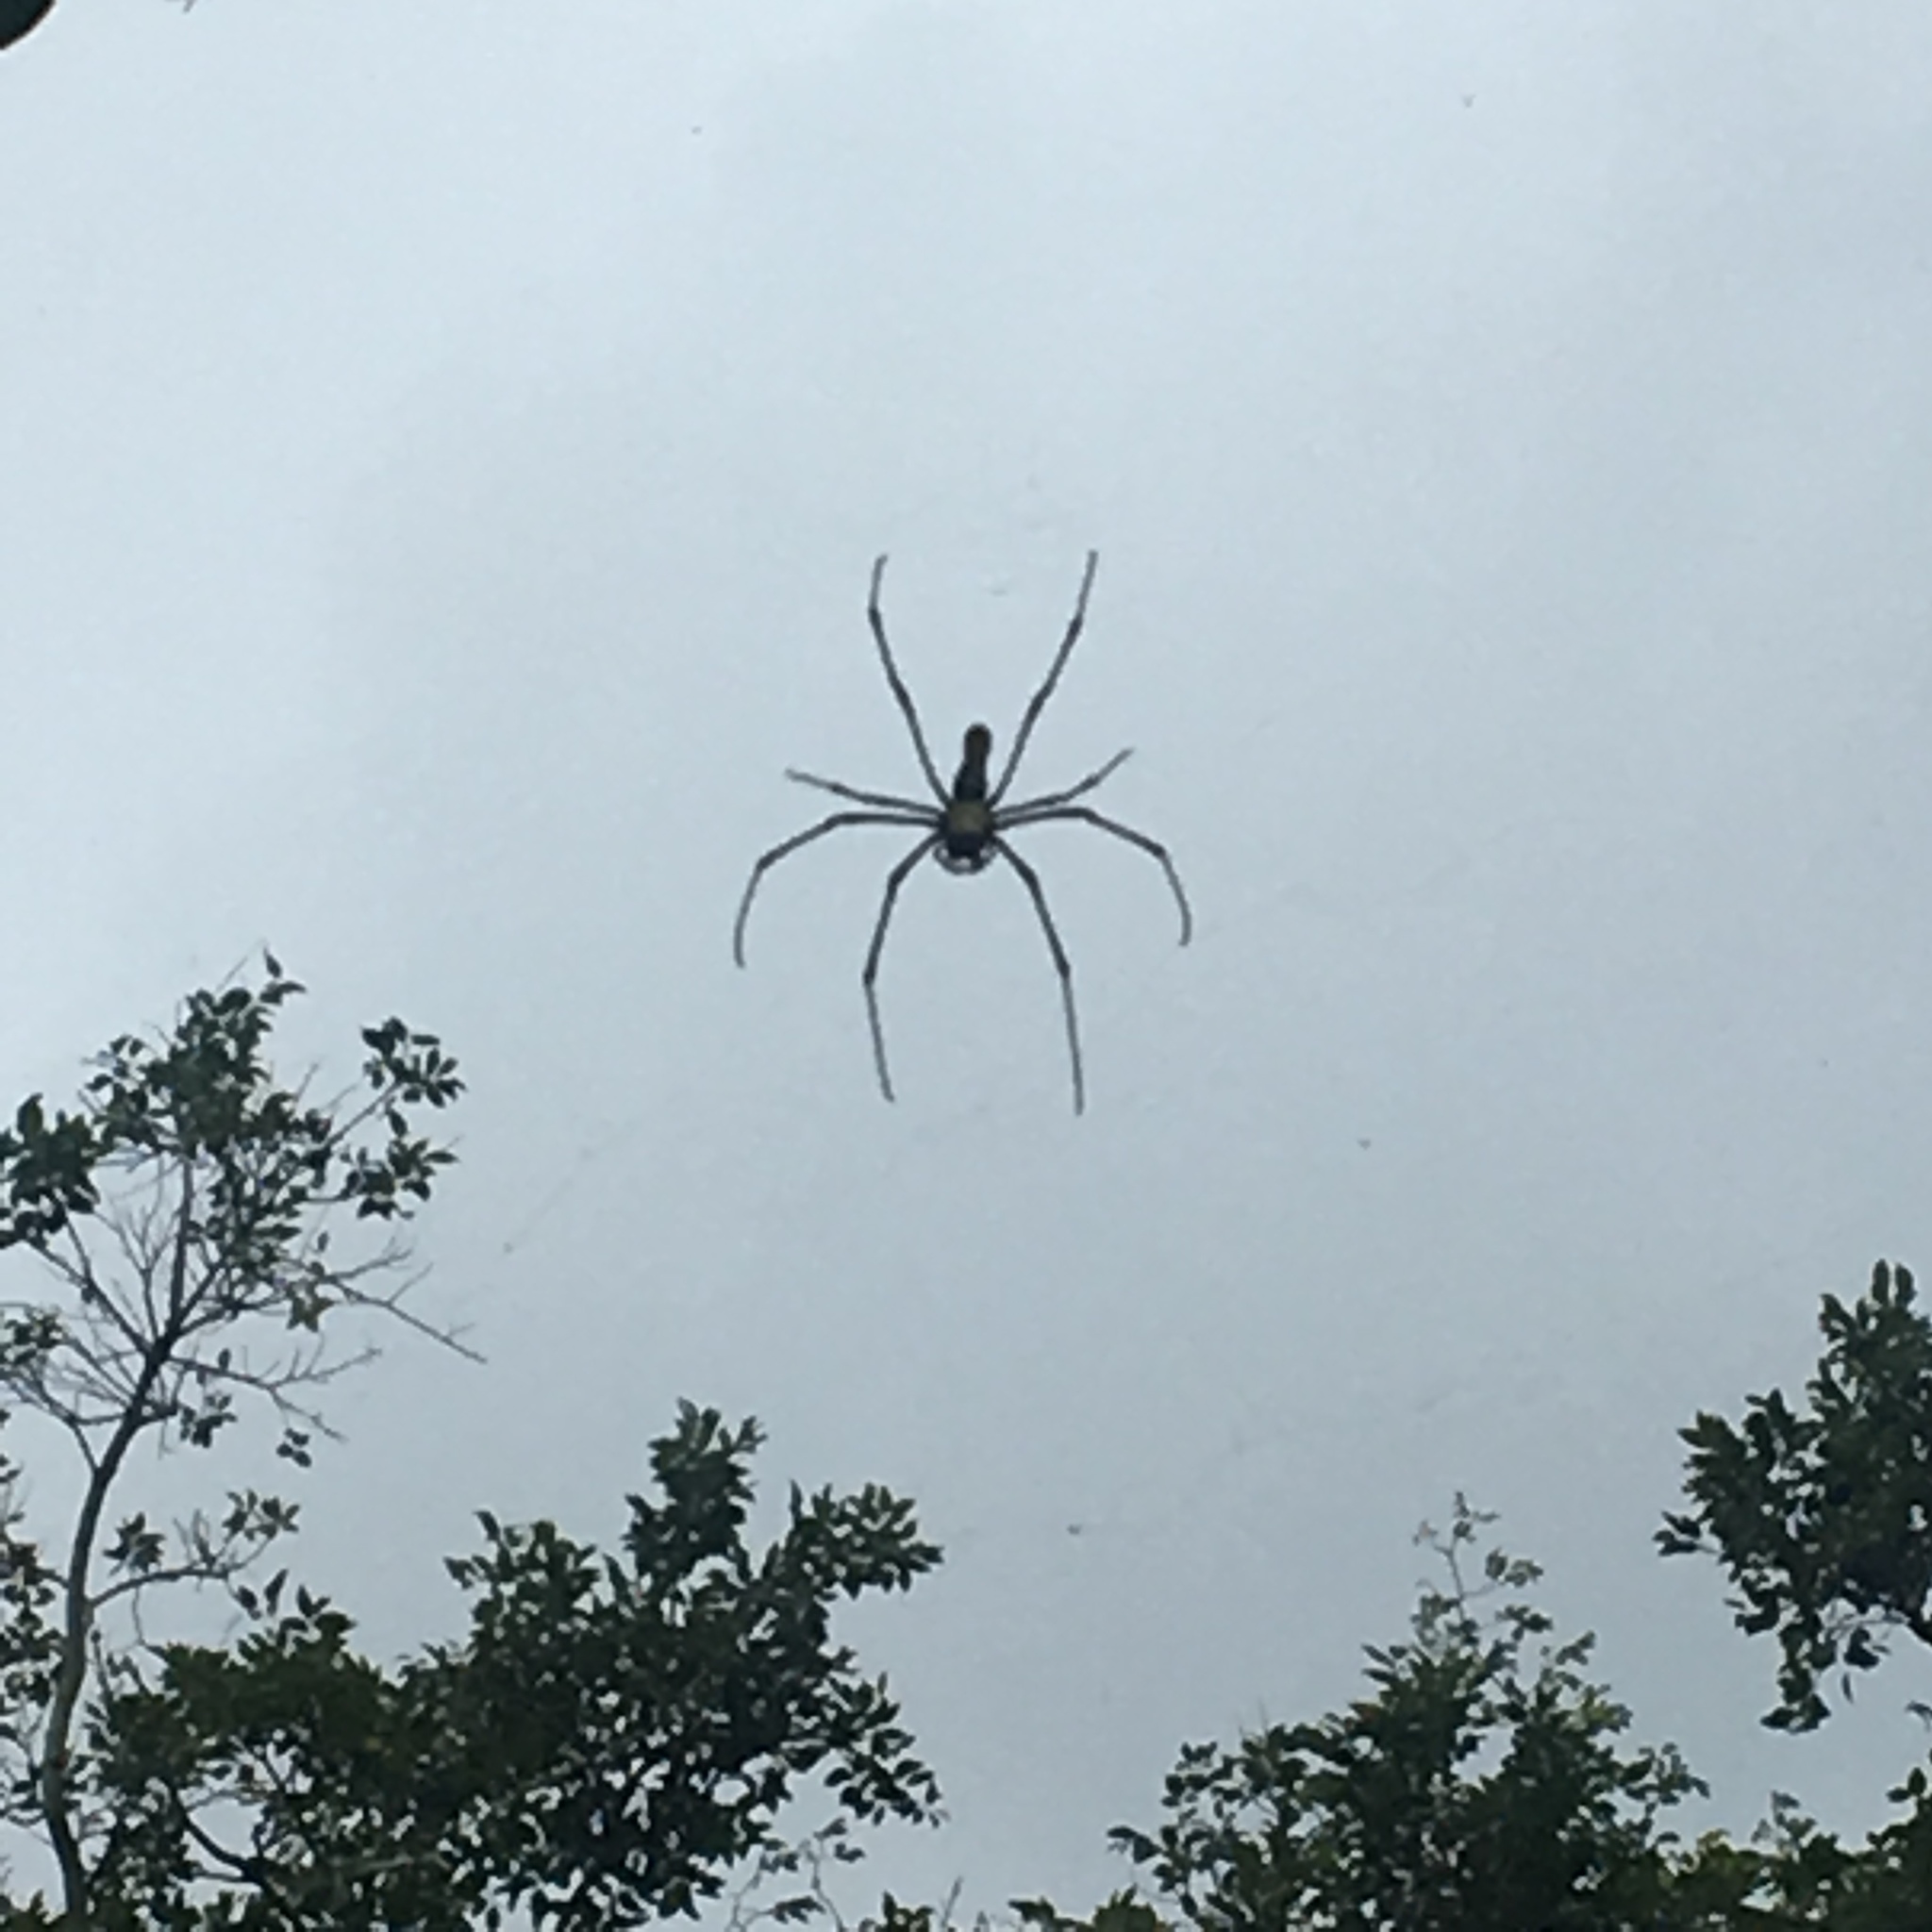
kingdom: Animalia
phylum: Arthropoda
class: Arachnida
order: Araneae
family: Araneidae
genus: Nephila
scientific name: Nephila pilipes
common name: Giant golden orb weaver
